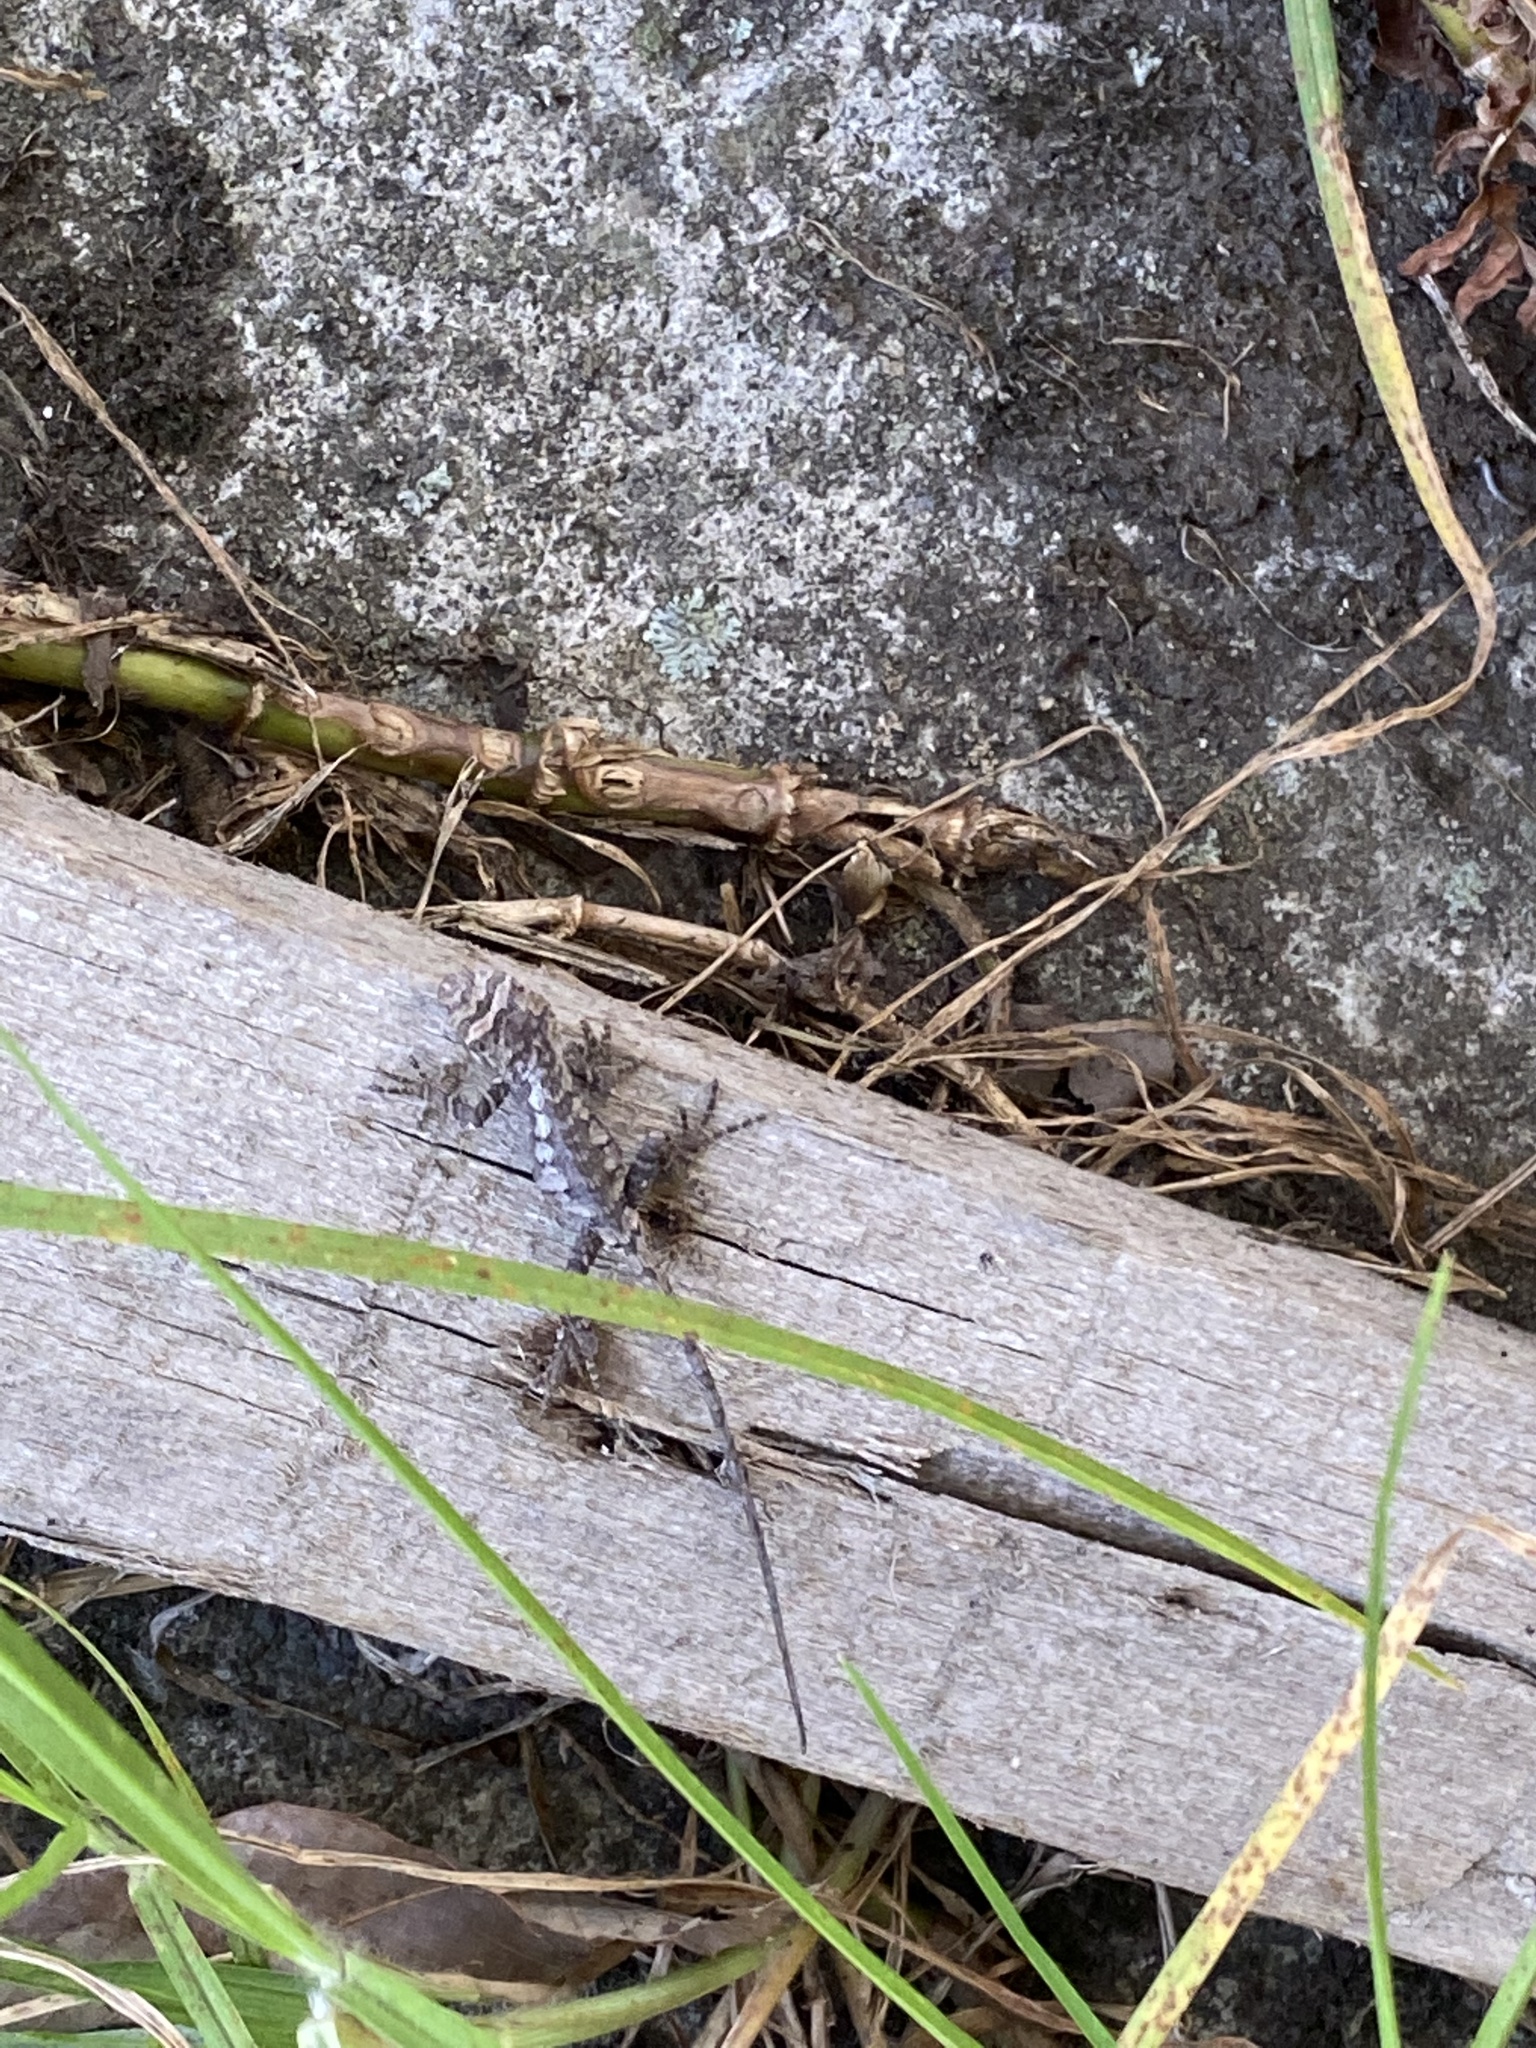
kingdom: Animalia
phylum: Chordata
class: Squamata
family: Agamidae
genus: Diploderma
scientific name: Diploderma brevipes
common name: Short-legged japalure
